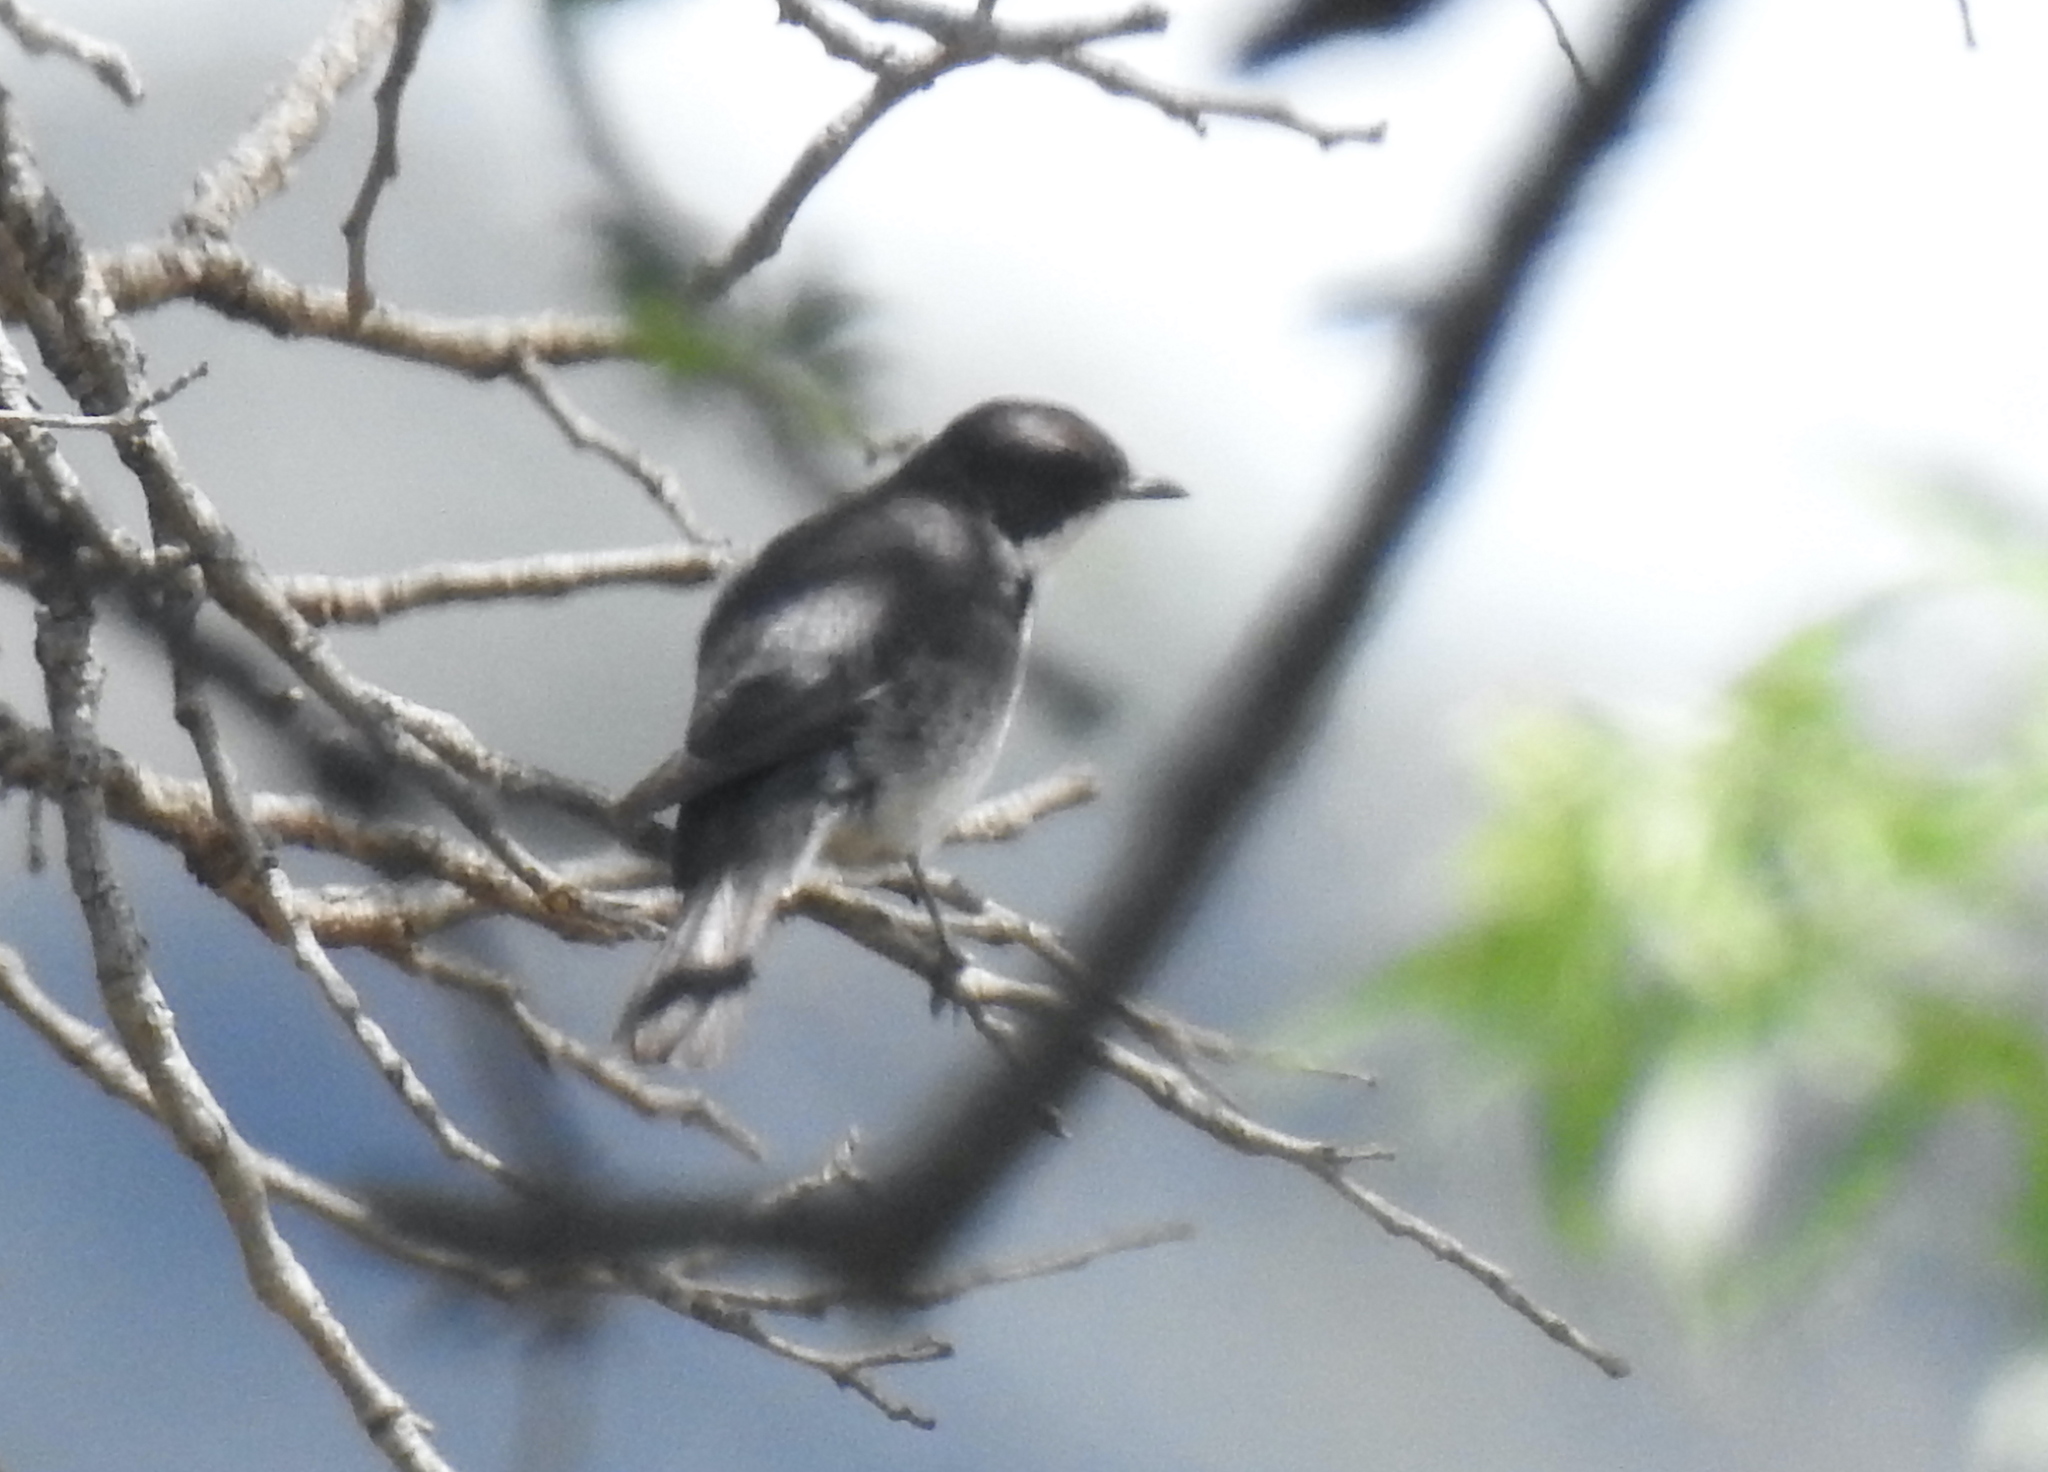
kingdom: Animalia
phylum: Chordata
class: Aves
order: Passeriformes
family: Muscicapidae
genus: Sigelus
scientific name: Sigelus silens
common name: Fiscal flycatcher
